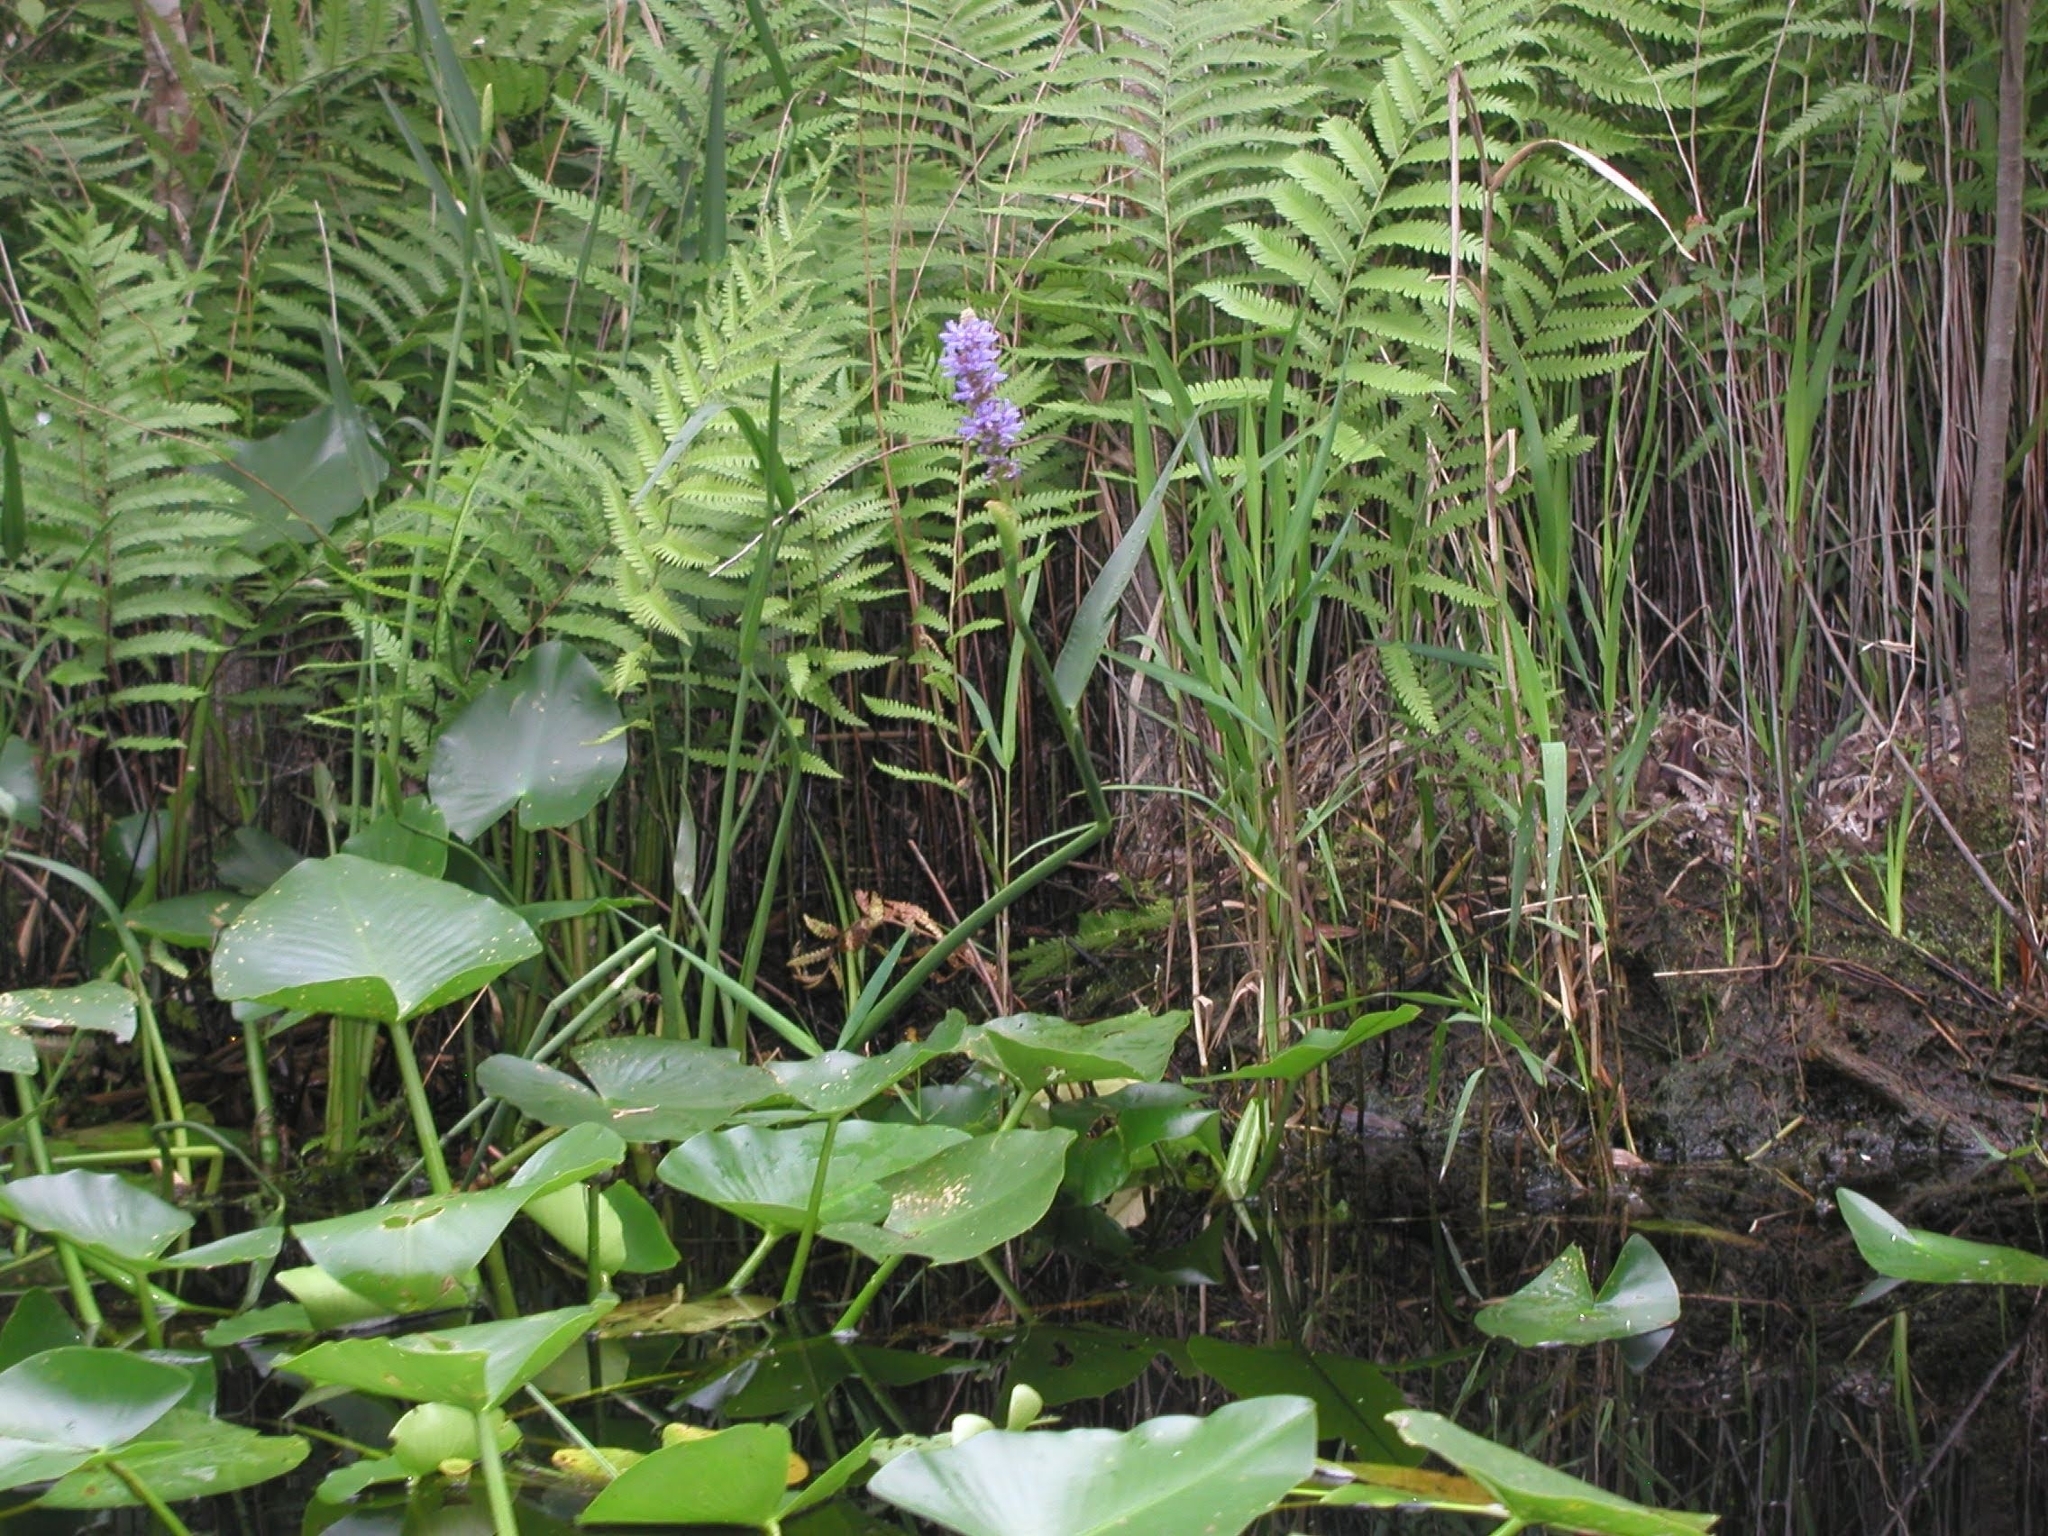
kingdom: Plantae
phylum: Tracheophyta
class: Liliopsida
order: Commelinales
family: Pontederiaceae
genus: Pontederia
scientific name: Pontederia cordata
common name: Pickerelweed
